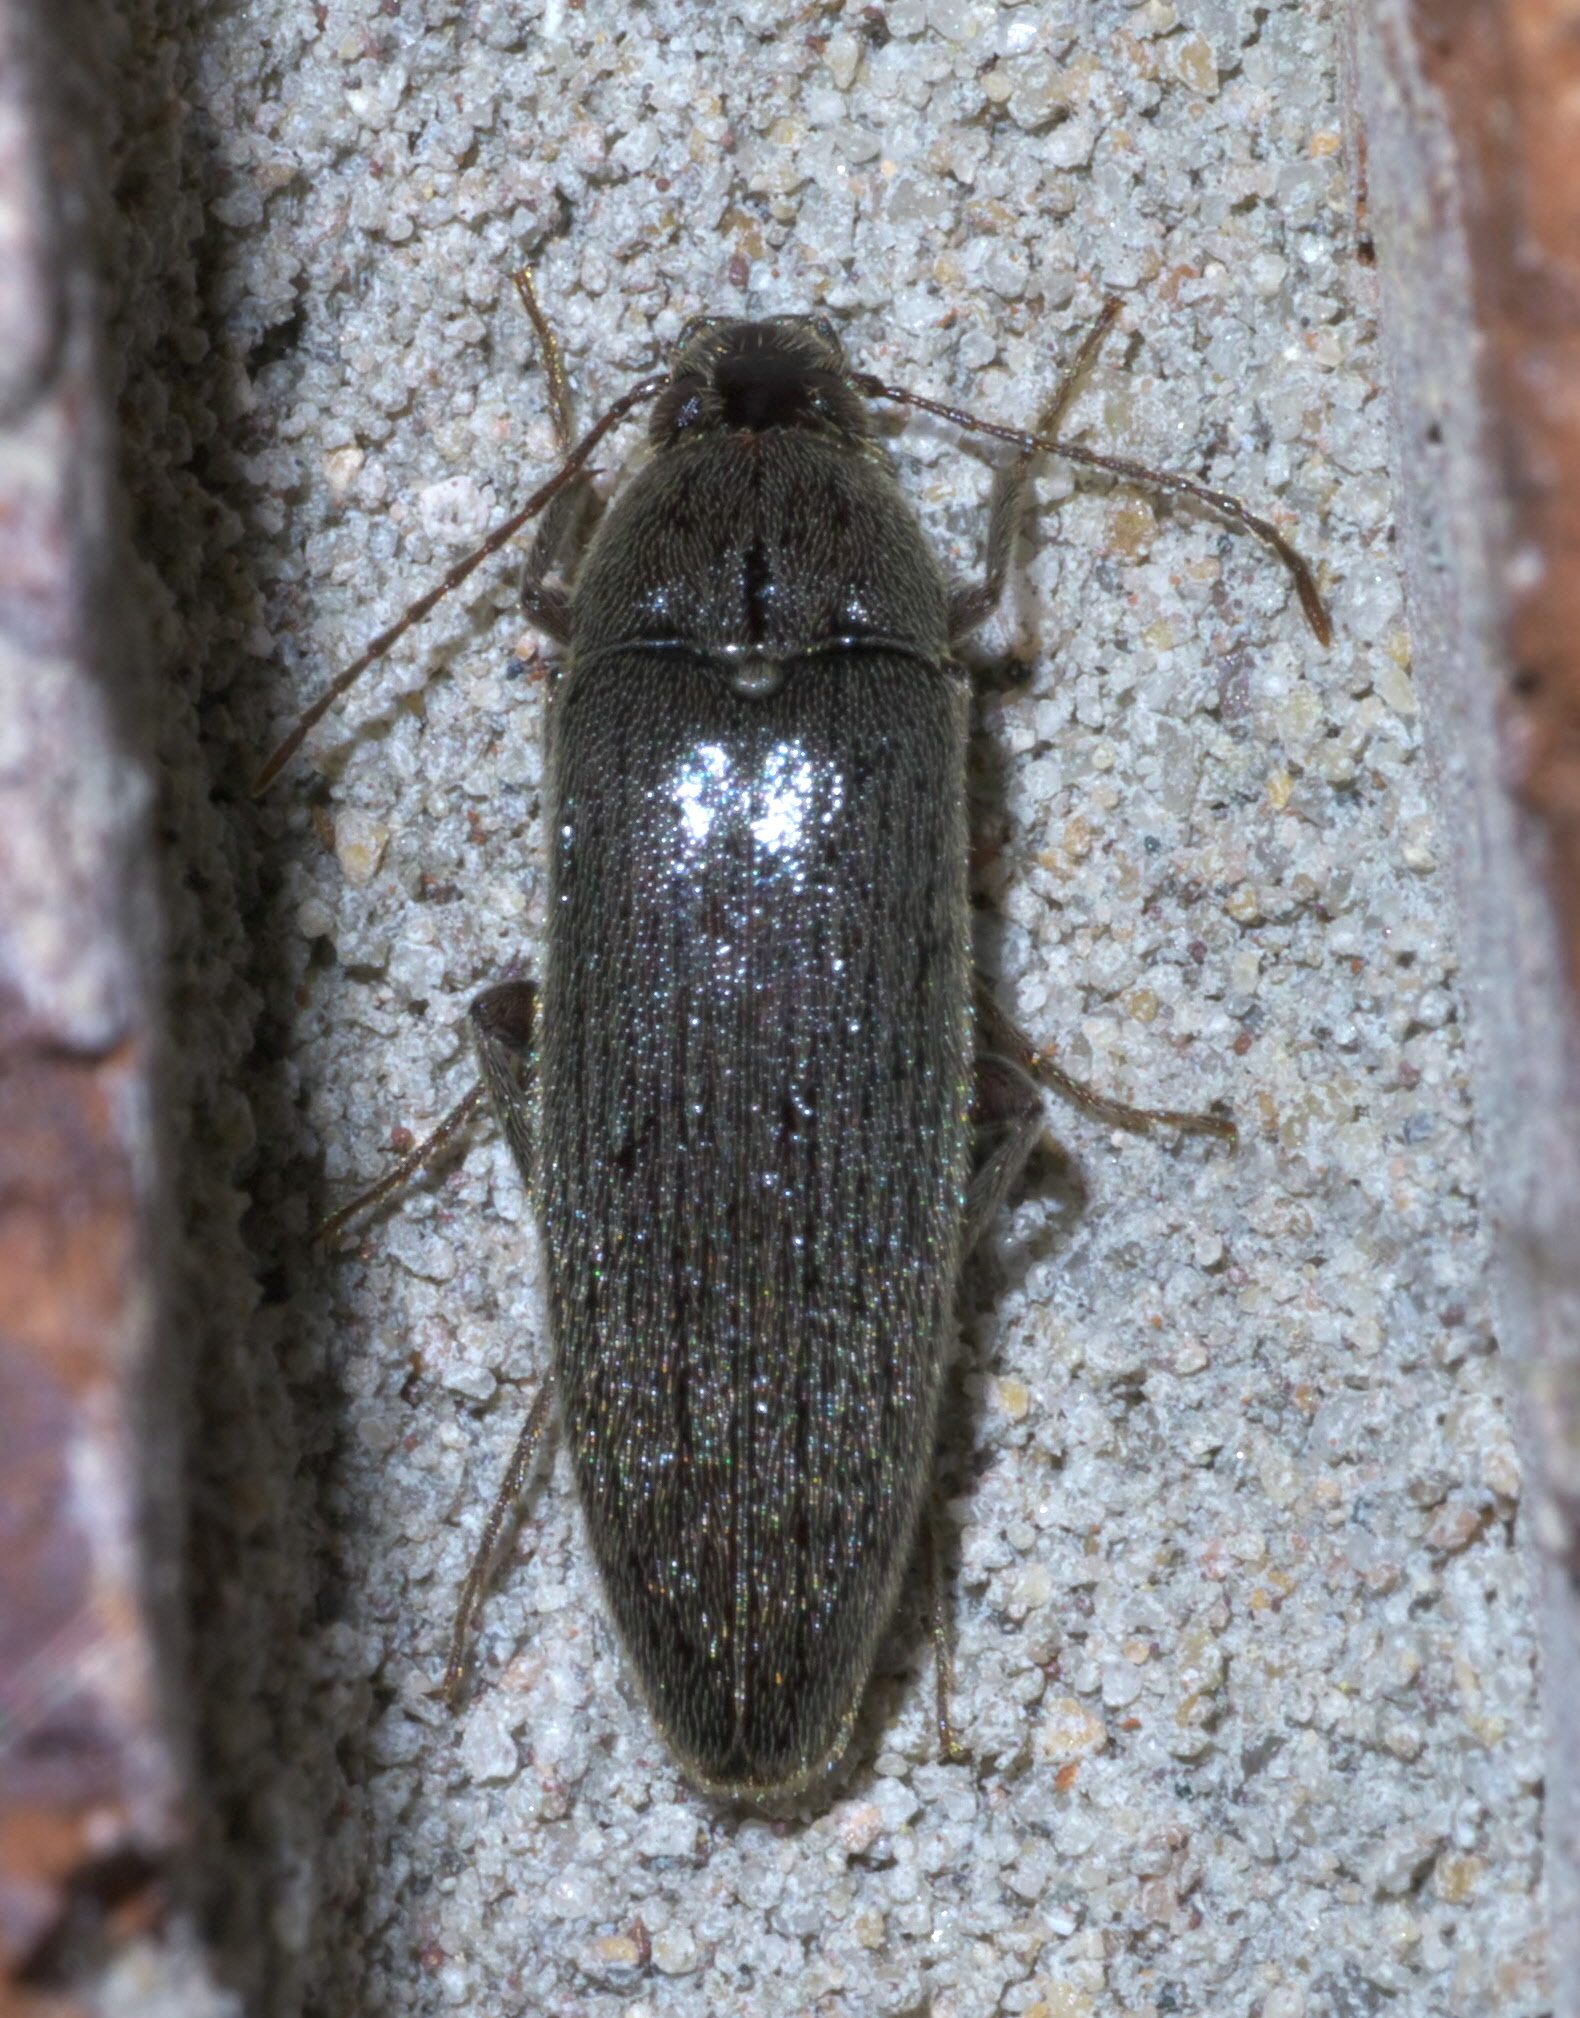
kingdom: Animalia
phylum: Arthropoda
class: Insecta
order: Coleoptera
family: Synchroidae
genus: Synchroa
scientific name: Synchroa punctata
